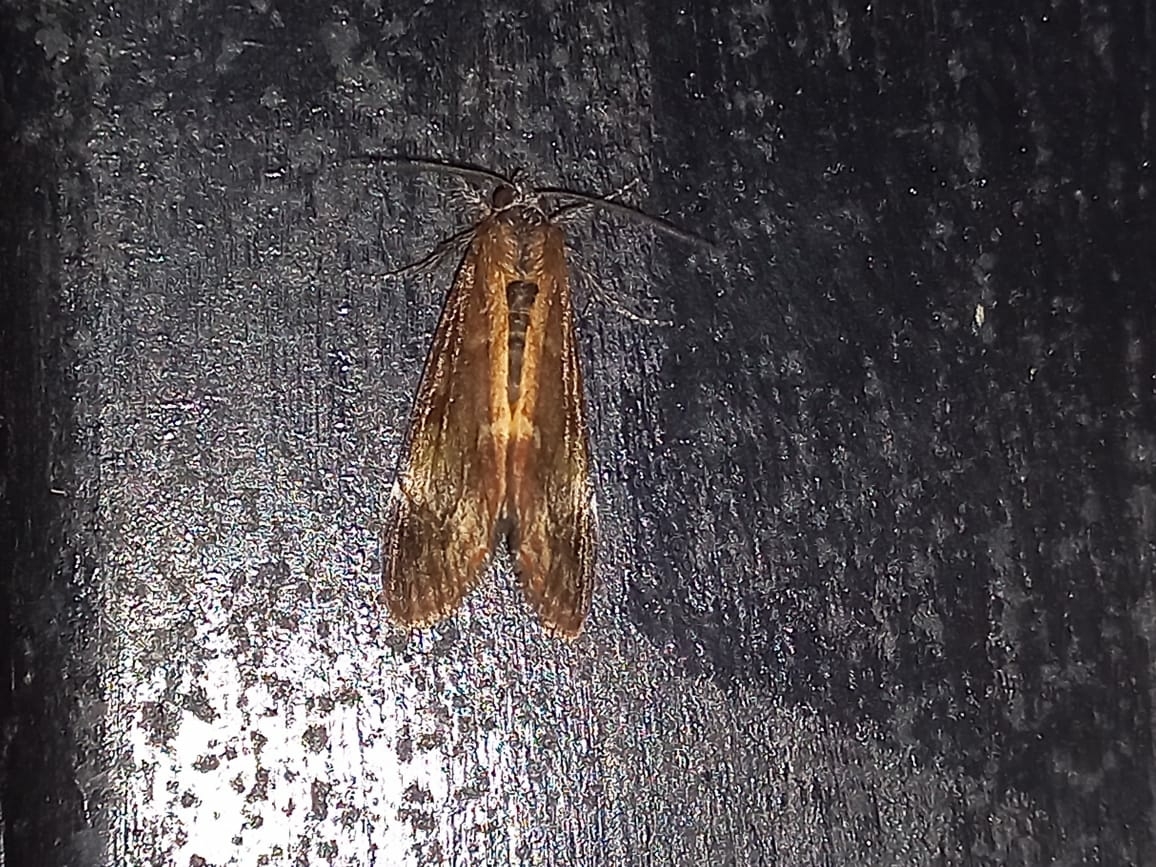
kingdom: Animalia
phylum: Arthropoda
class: Insecta
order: Lepidoptera
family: Noctuidae
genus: Gerra
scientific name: Gerra aelia
